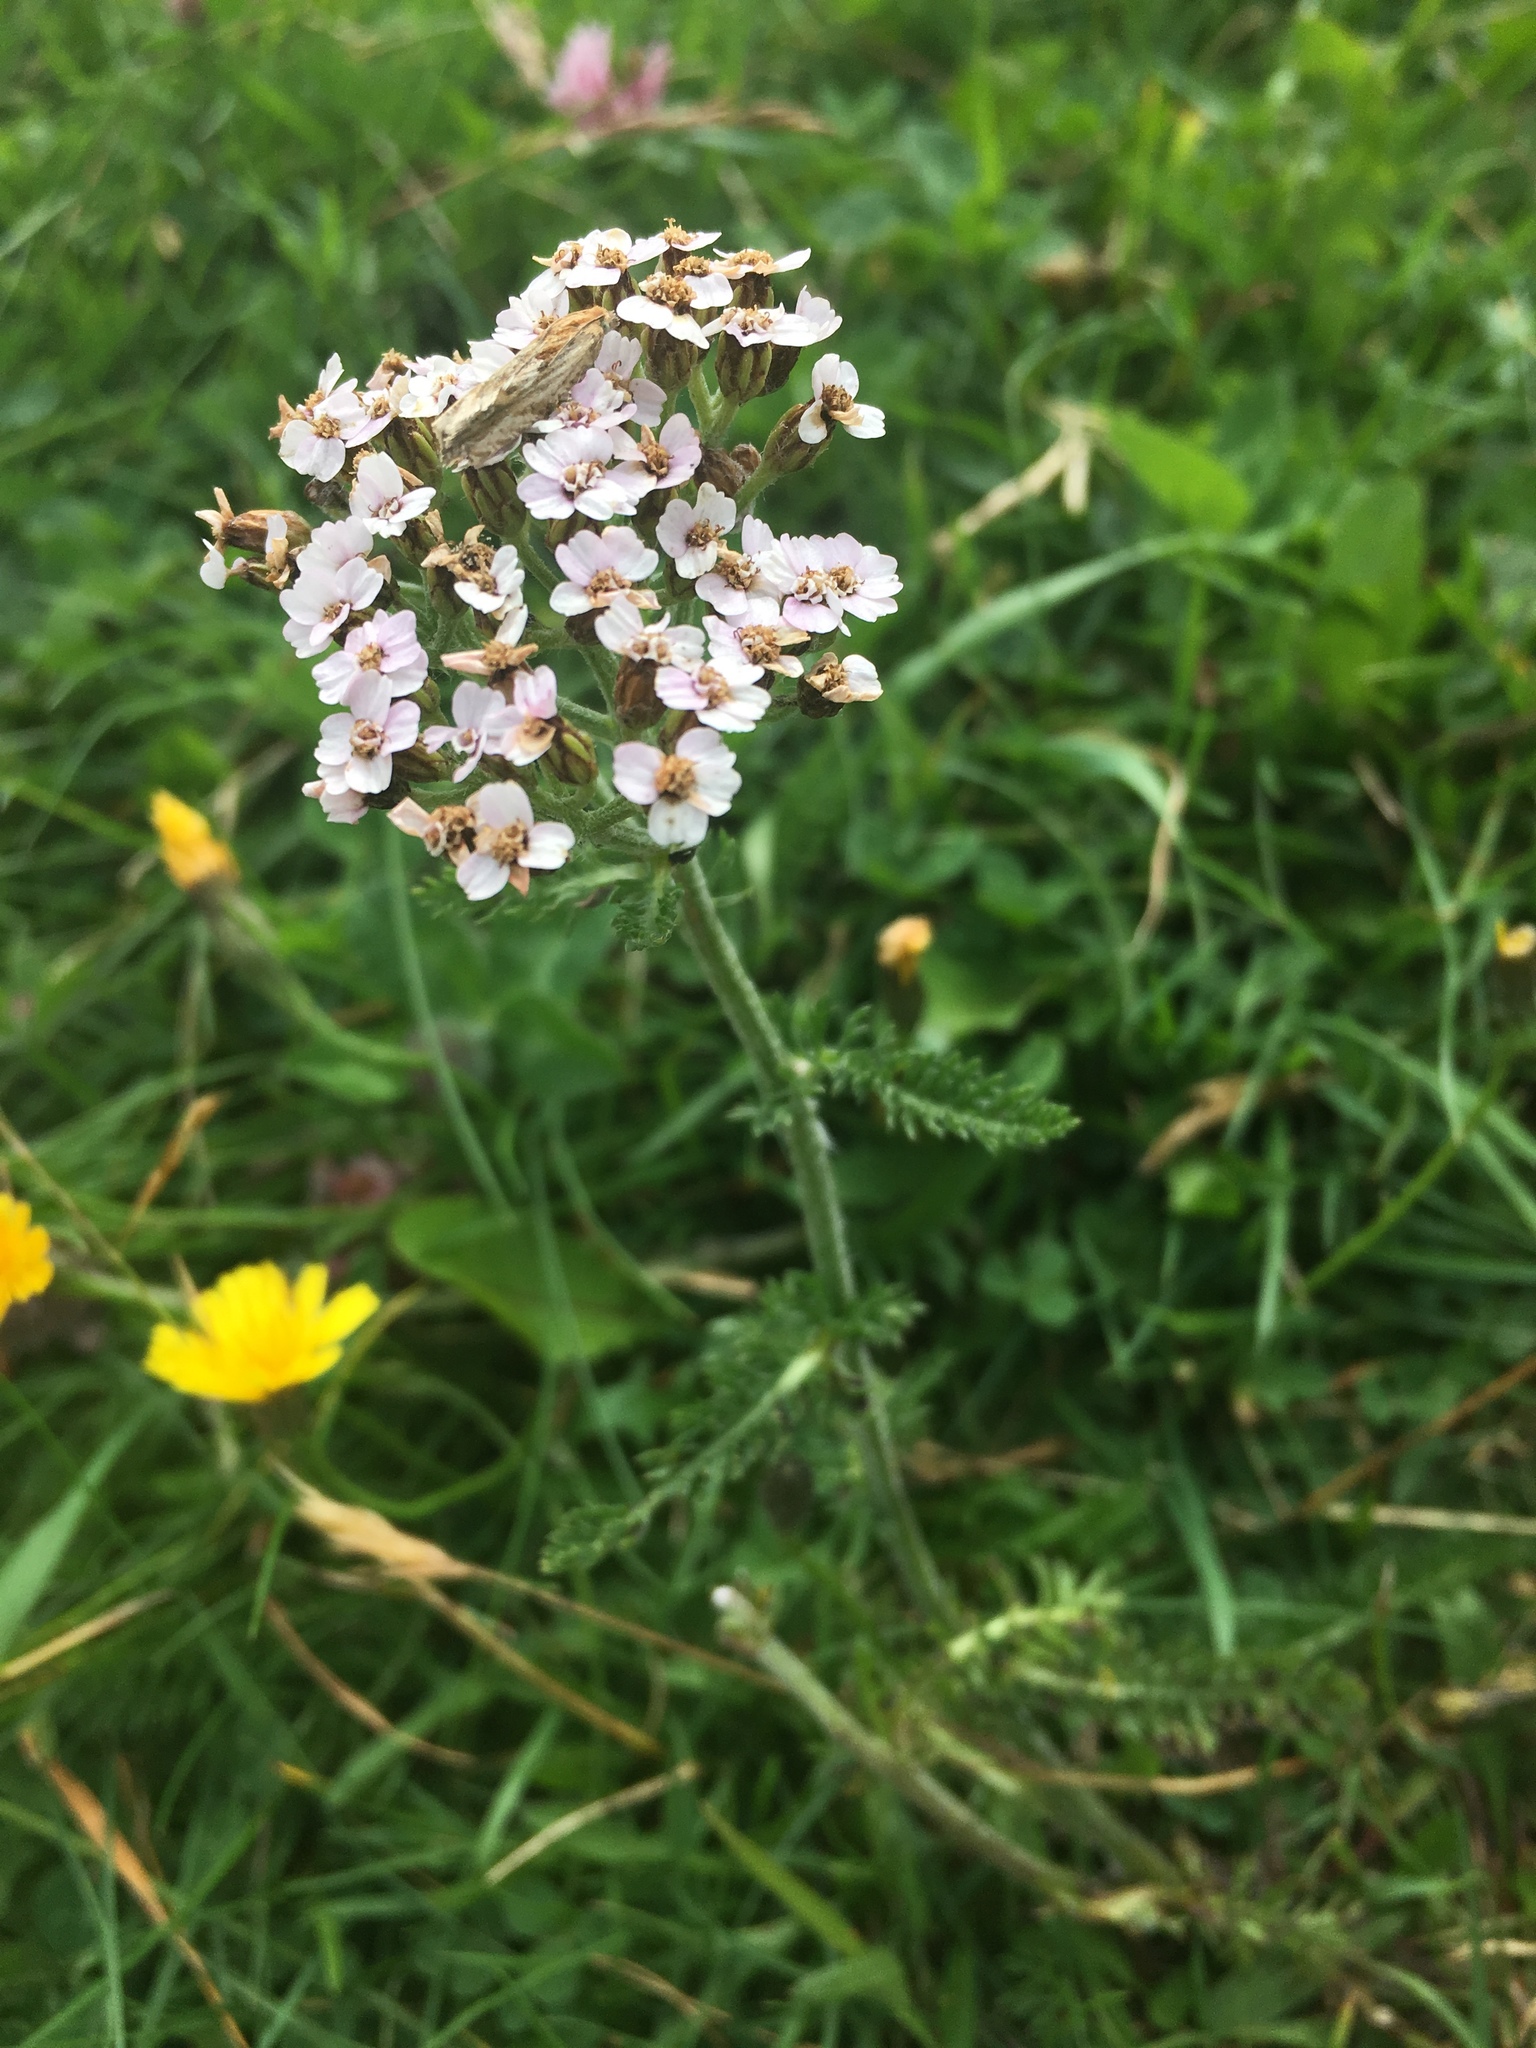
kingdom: Plantae
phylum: Tracheophyta
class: Magnoliopsida
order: Asterales
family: Asteraceae
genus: Achillea
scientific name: Achillea millefolium
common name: Yarrow
